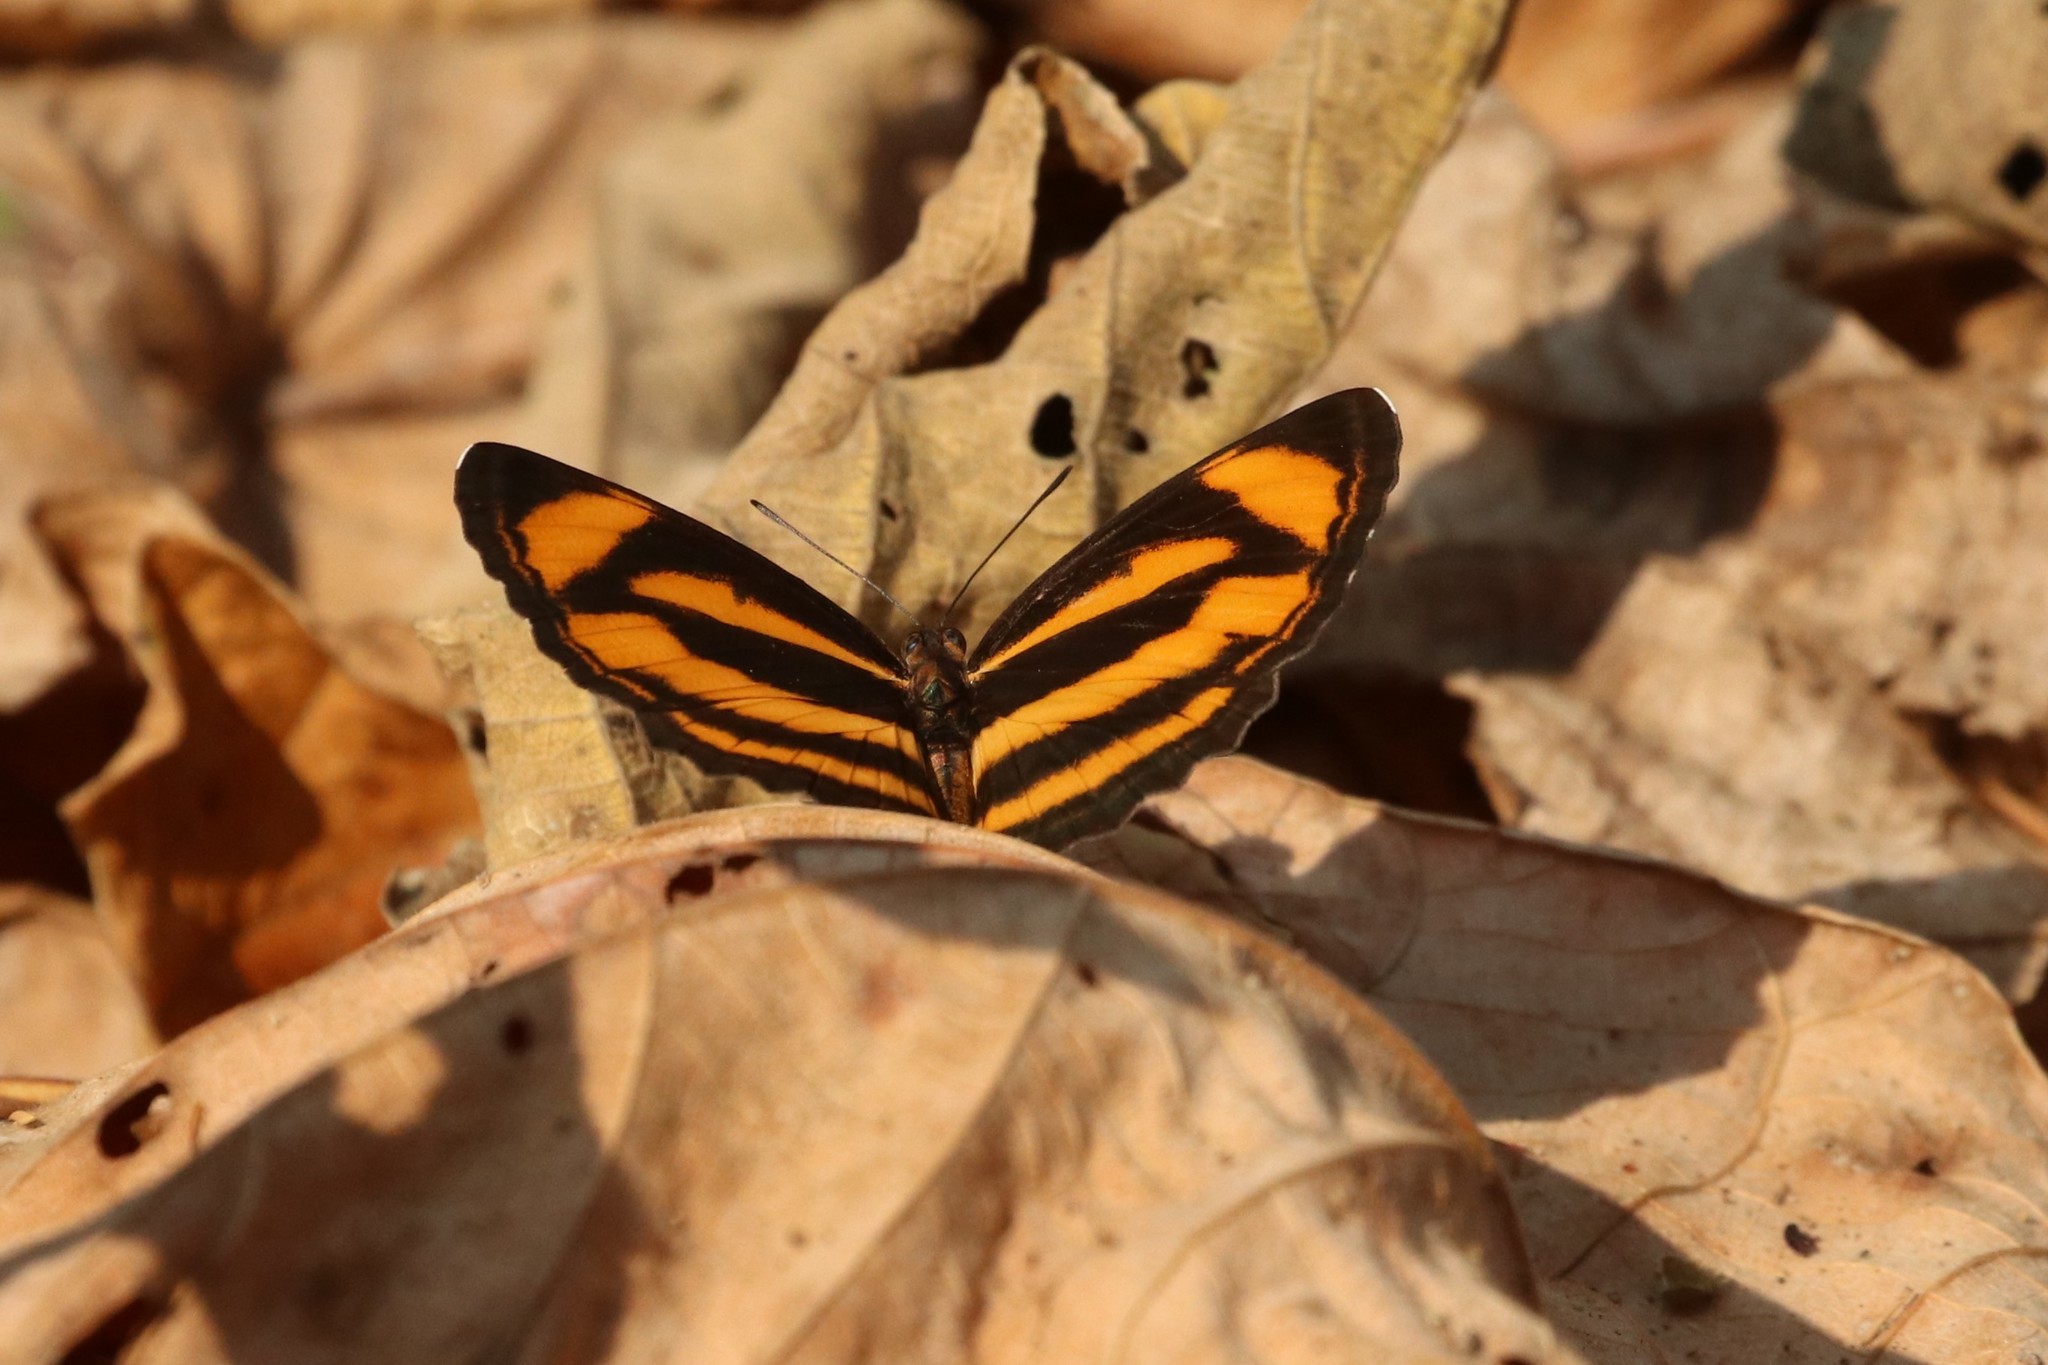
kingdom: Animalia
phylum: Arthropoda
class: Insecta
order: Lepidoptera
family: Nymphalidae
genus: Pantoporia
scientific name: Pantoporia hordonia
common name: Common lascar
